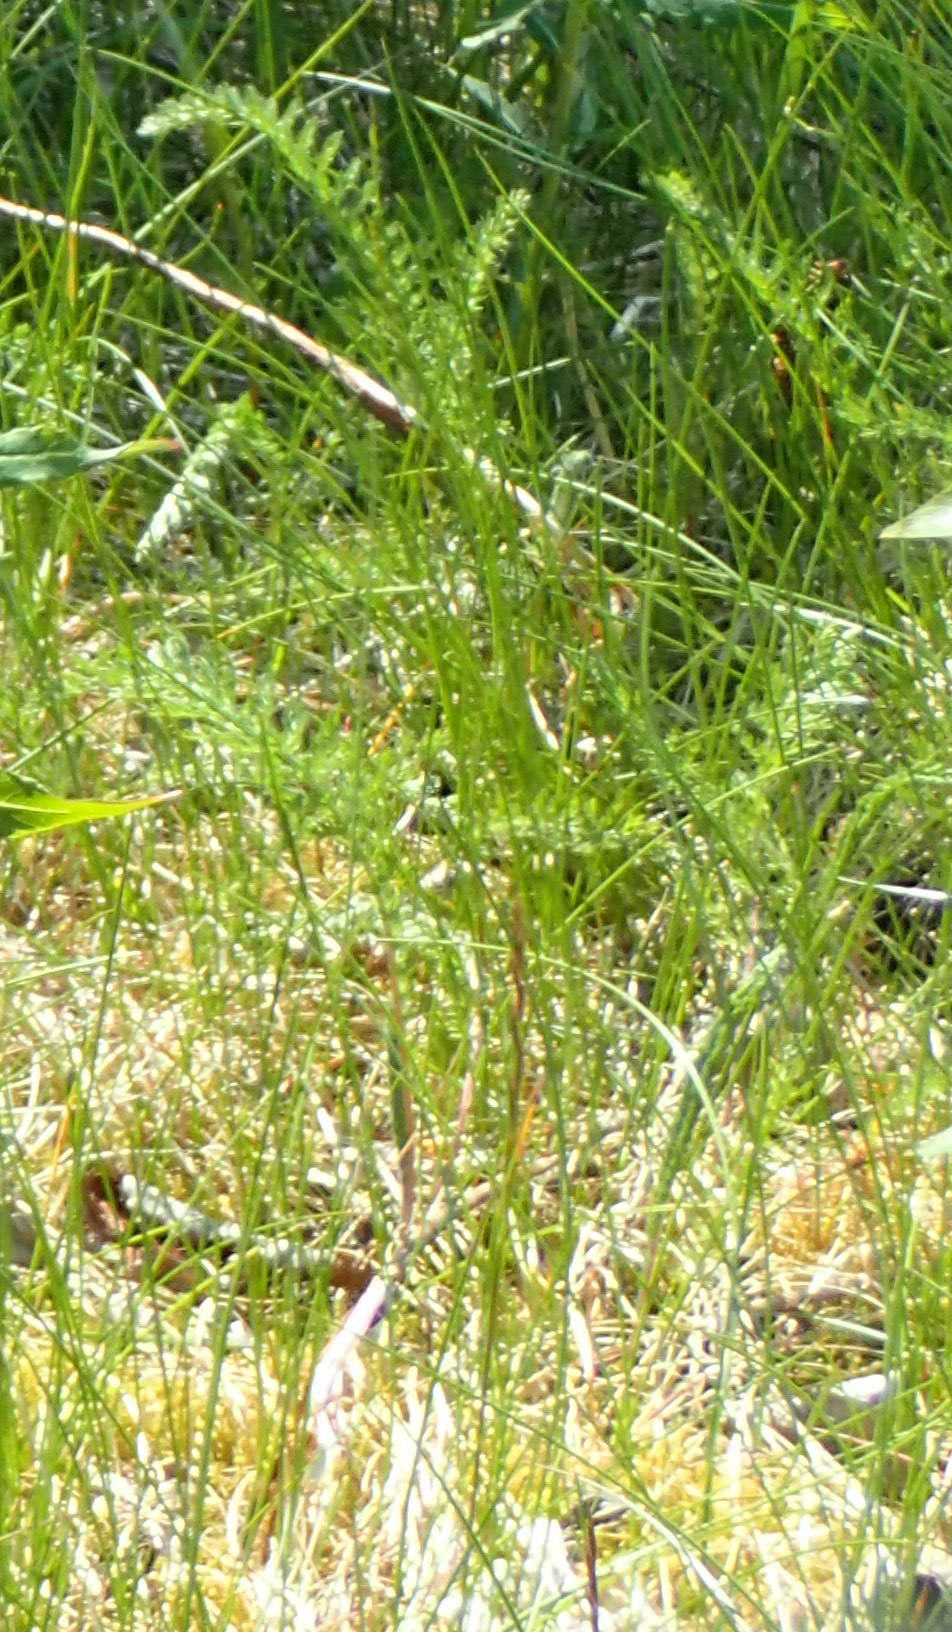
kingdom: Plantae
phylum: Tracheophyta
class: Magnoliopsida
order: Asterales
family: Asteraceae
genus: Achillea
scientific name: Achillea millefolium
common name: Yarrow
